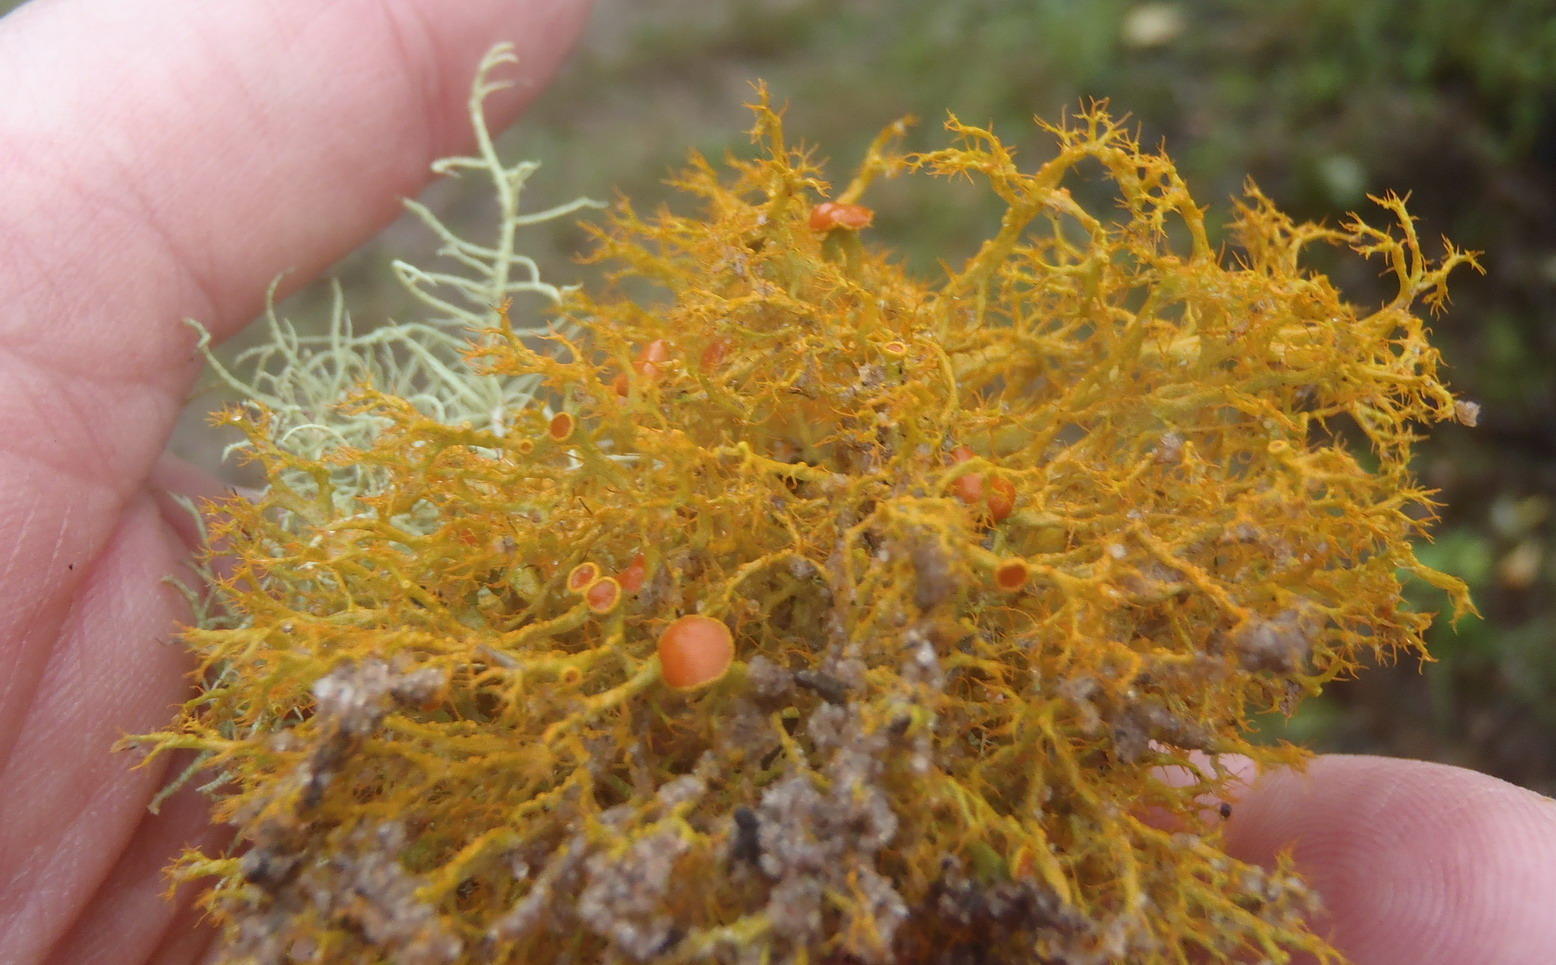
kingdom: Fungi
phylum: Ascomycota
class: Lecanoromycetes
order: Teloschistales
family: Teloschistaceae
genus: Teloschistes
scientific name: Teloschistes inflatus
